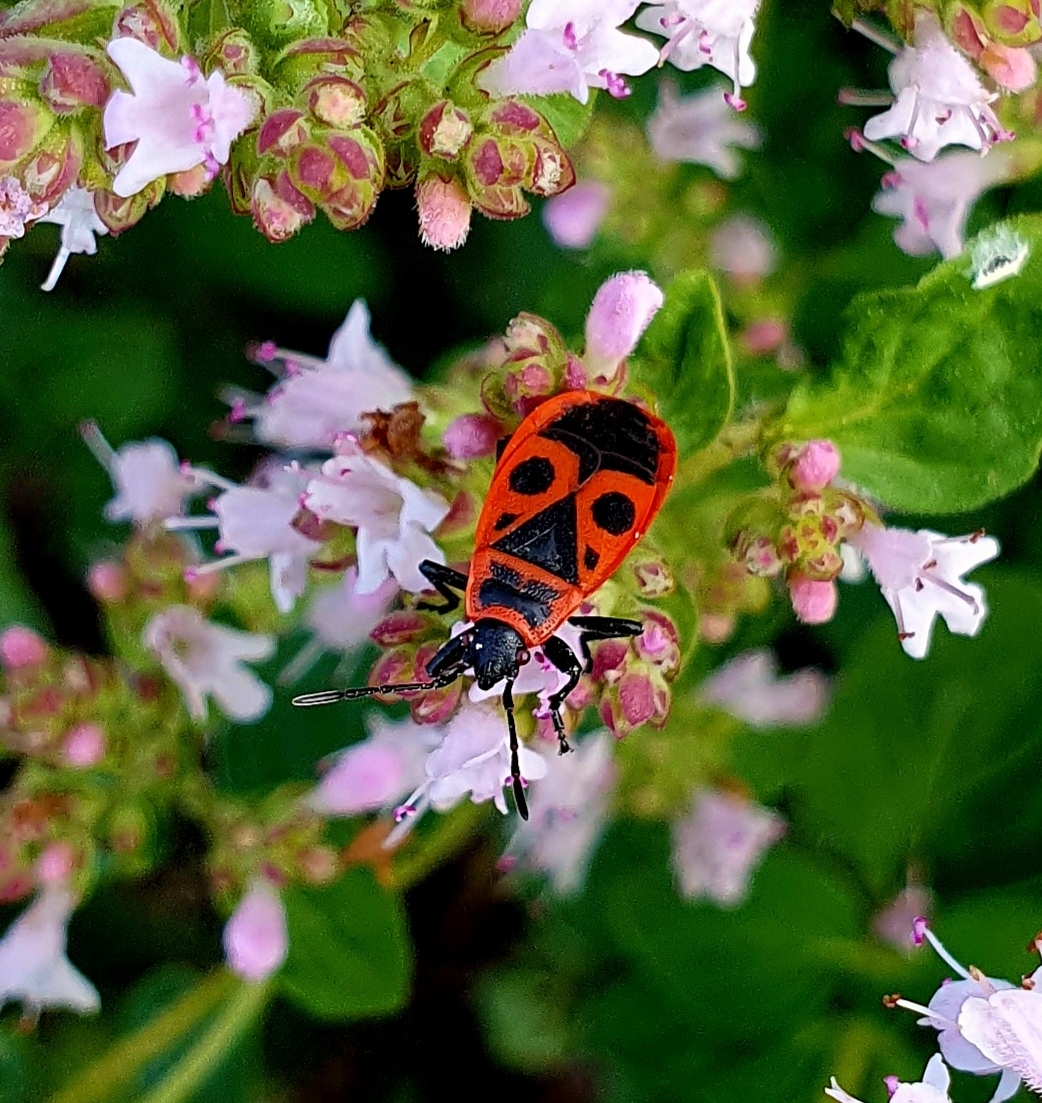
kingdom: Animalia
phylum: Arthropoda
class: Insecta
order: Hemiptera
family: Pyrrhocoridae
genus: Pyrrhocoris
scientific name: Pyrrhocoris apterus
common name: Firebug
